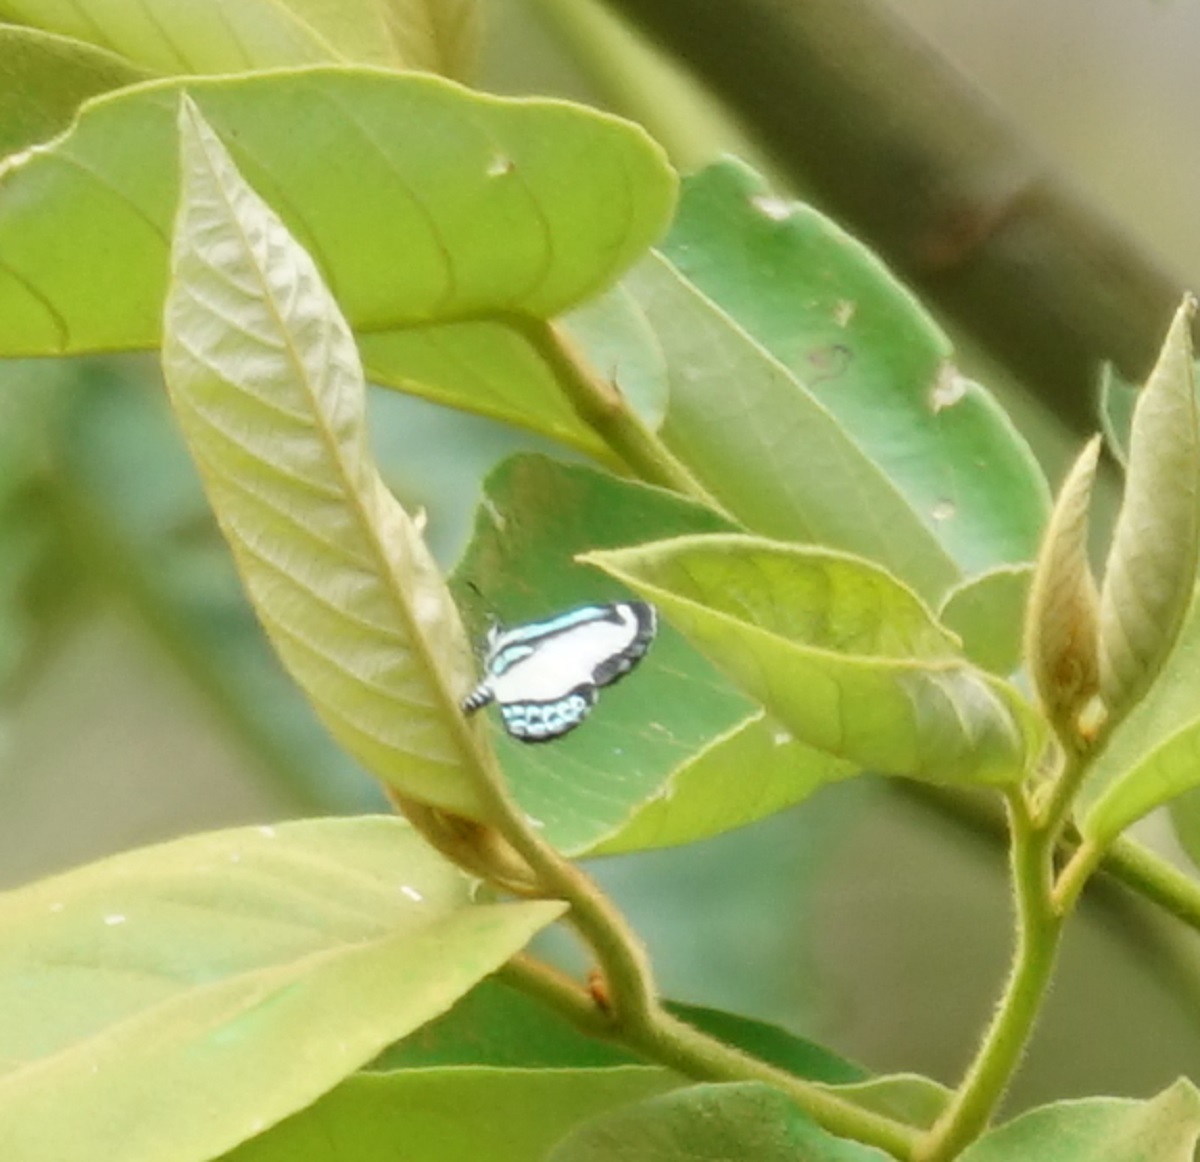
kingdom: Animalia
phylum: Arthropoda
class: Insecta
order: Lepidoptera
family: Lycaenidae
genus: Psychonotis
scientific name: Psychonotis caelius
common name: Small green banded blue
